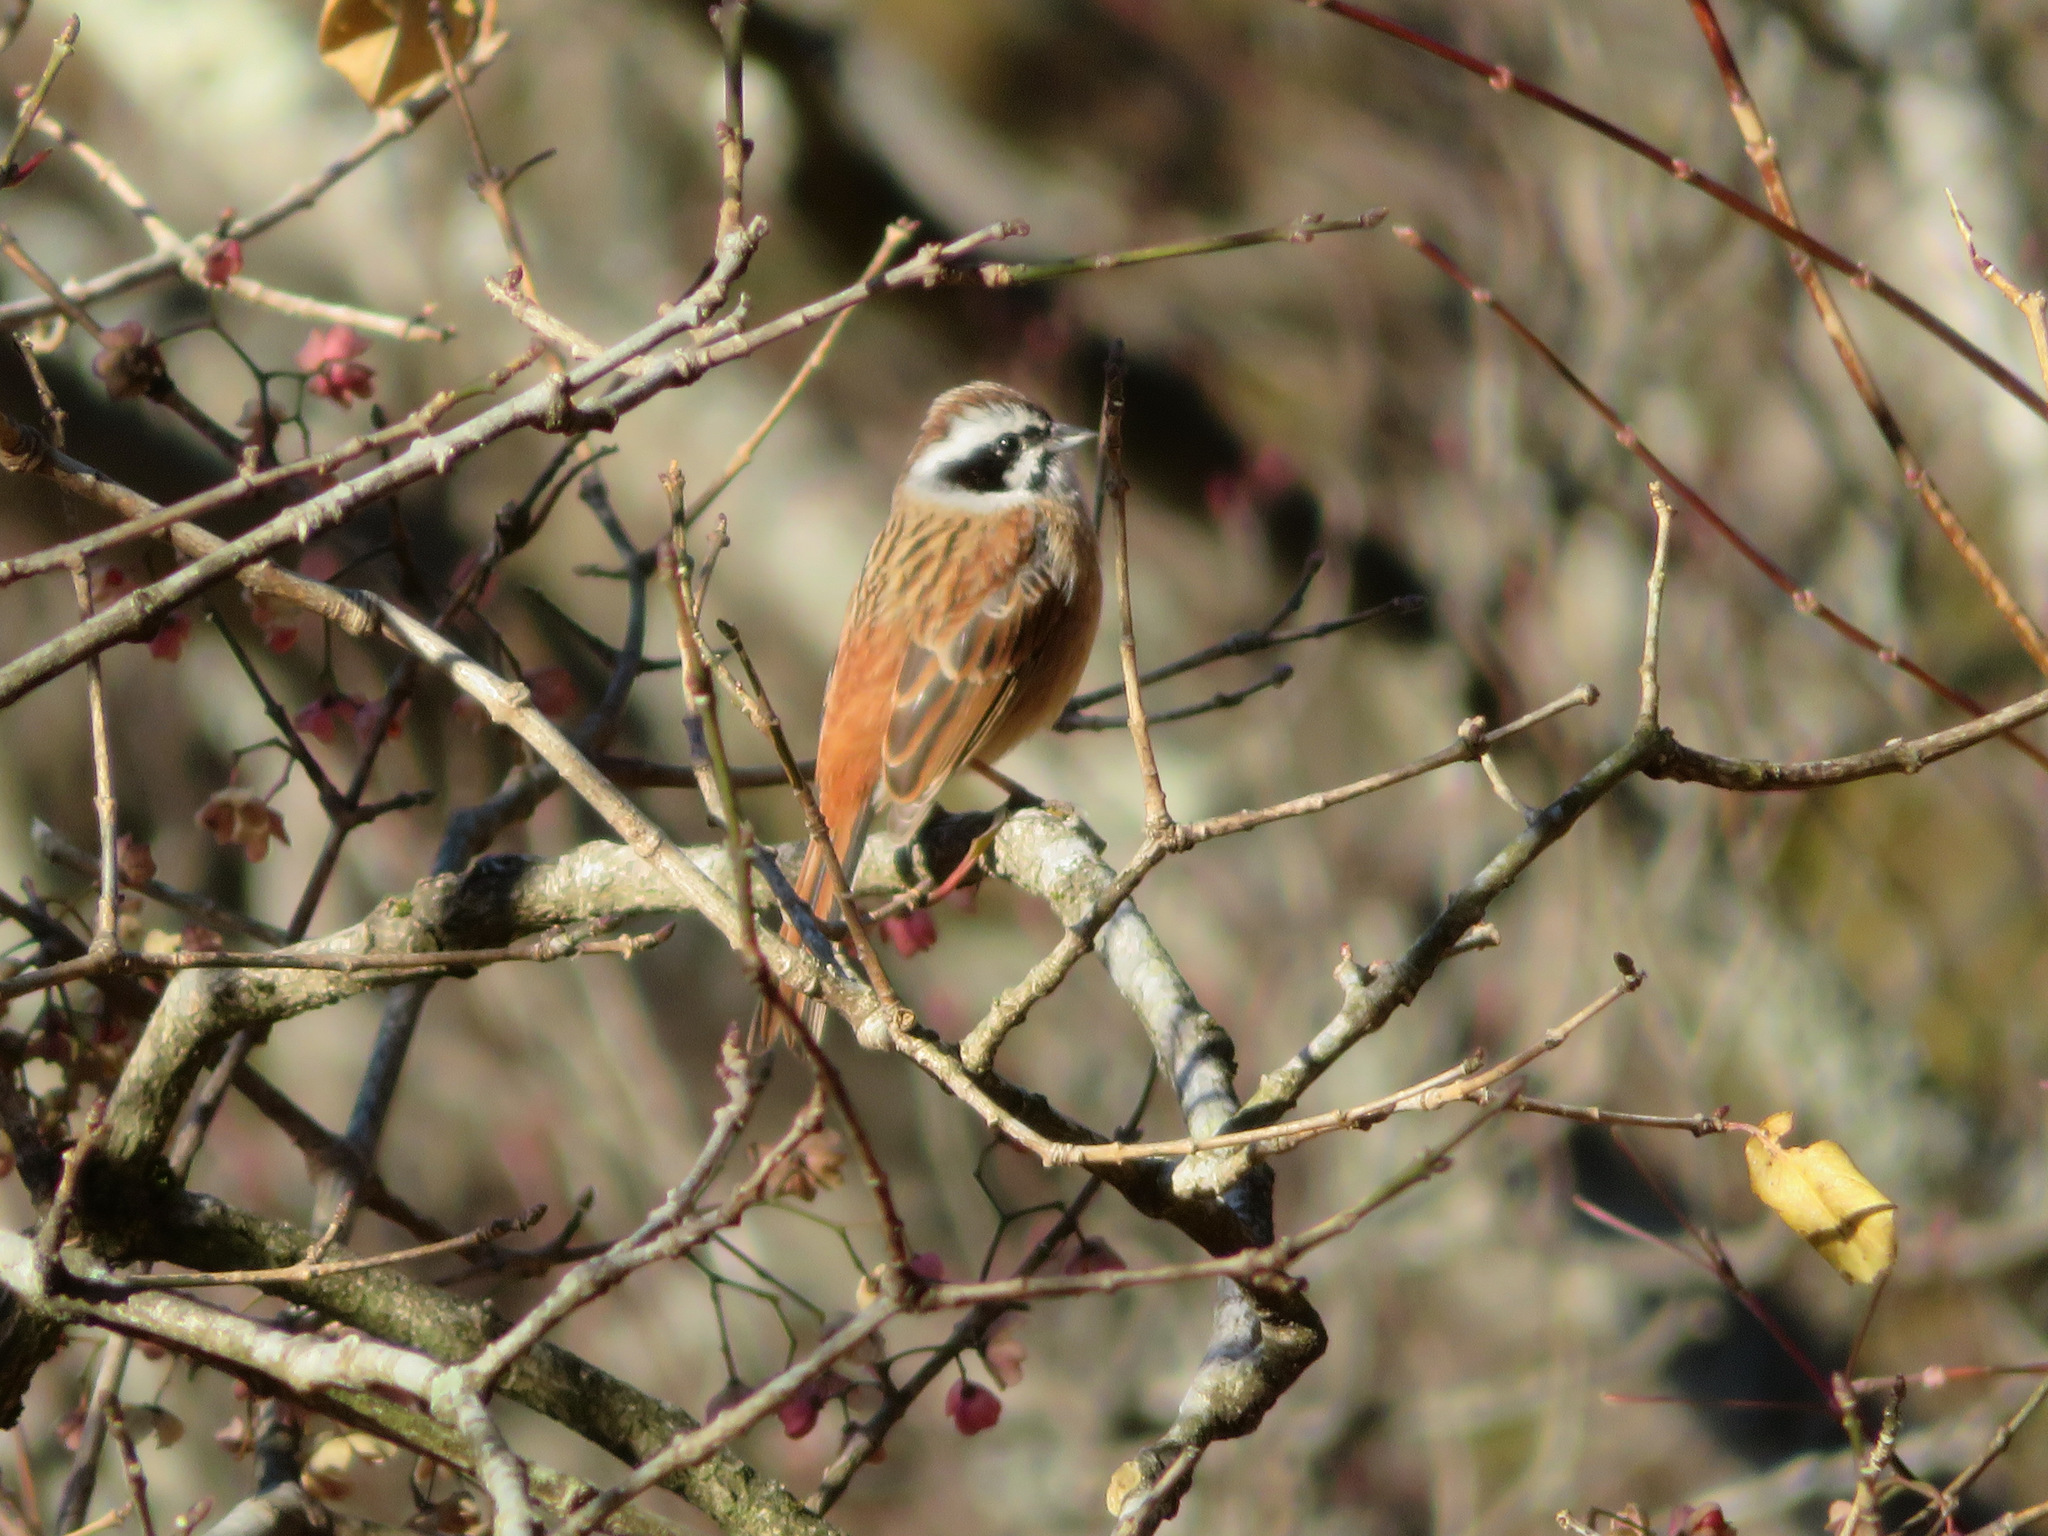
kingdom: Animalia
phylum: Chordata
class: Aves
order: Passeriformes
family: Emberizidae
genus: Emberiza
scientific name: Emberiza cioides
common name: Meadow bunting
